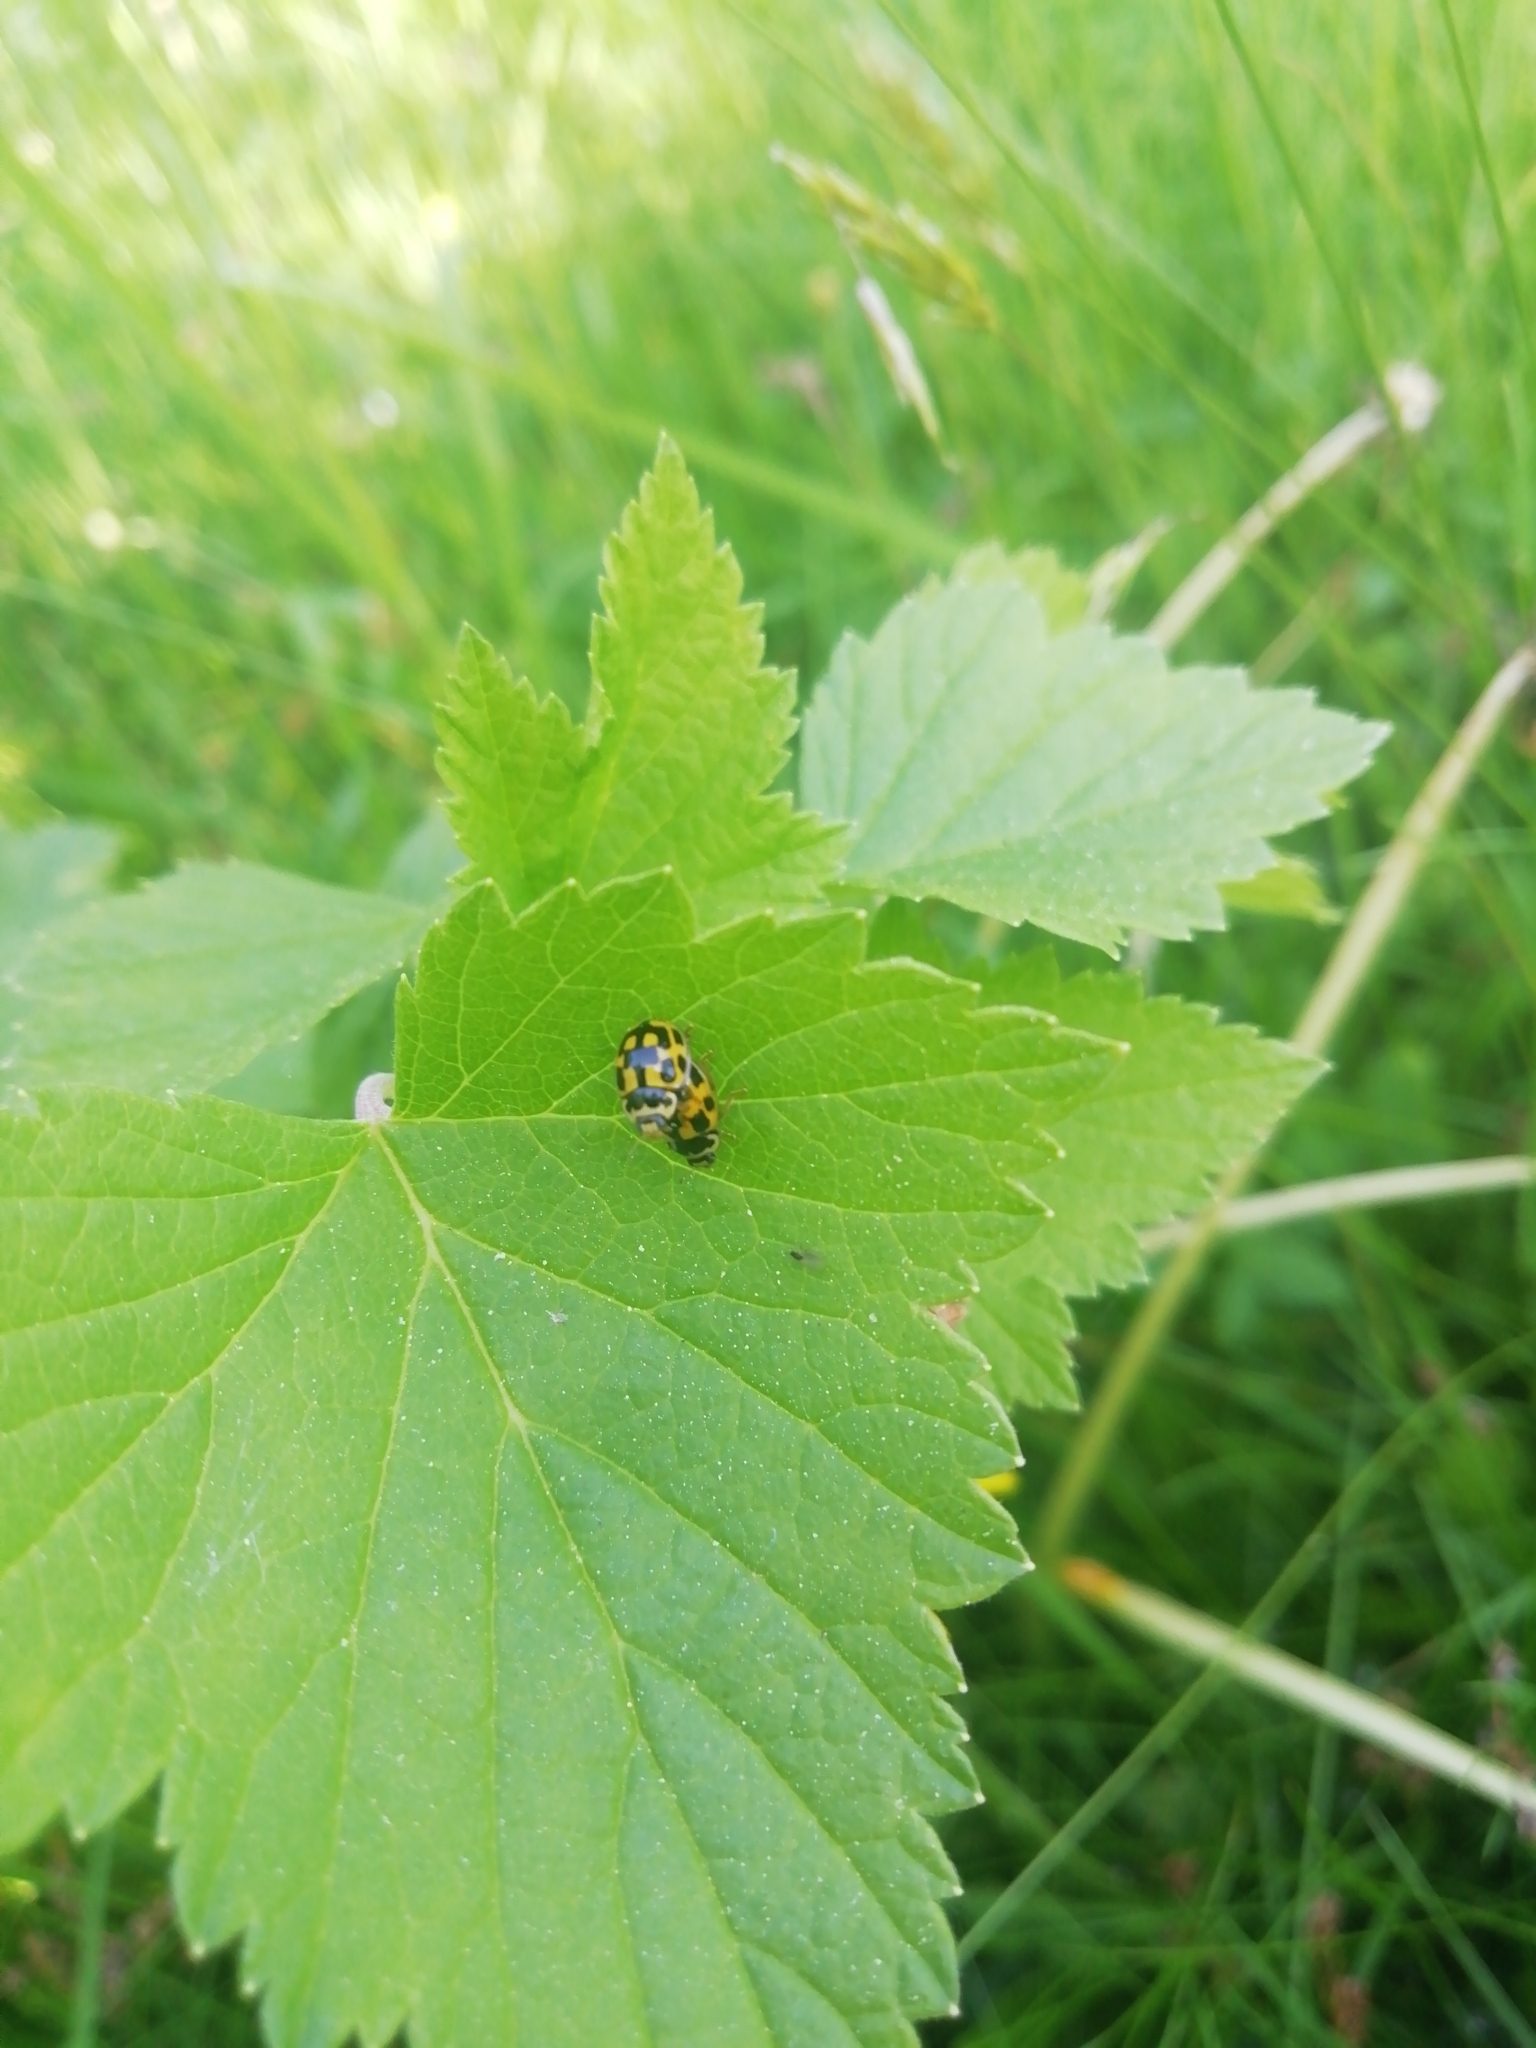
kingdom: Animalia
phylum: Arthropoda
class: Insecta
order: Coleoptera
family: Coccinellidae
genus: Propylaea
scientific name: Propylaea quatuordecimpunctata
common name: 14-spotted ladybird beetle
